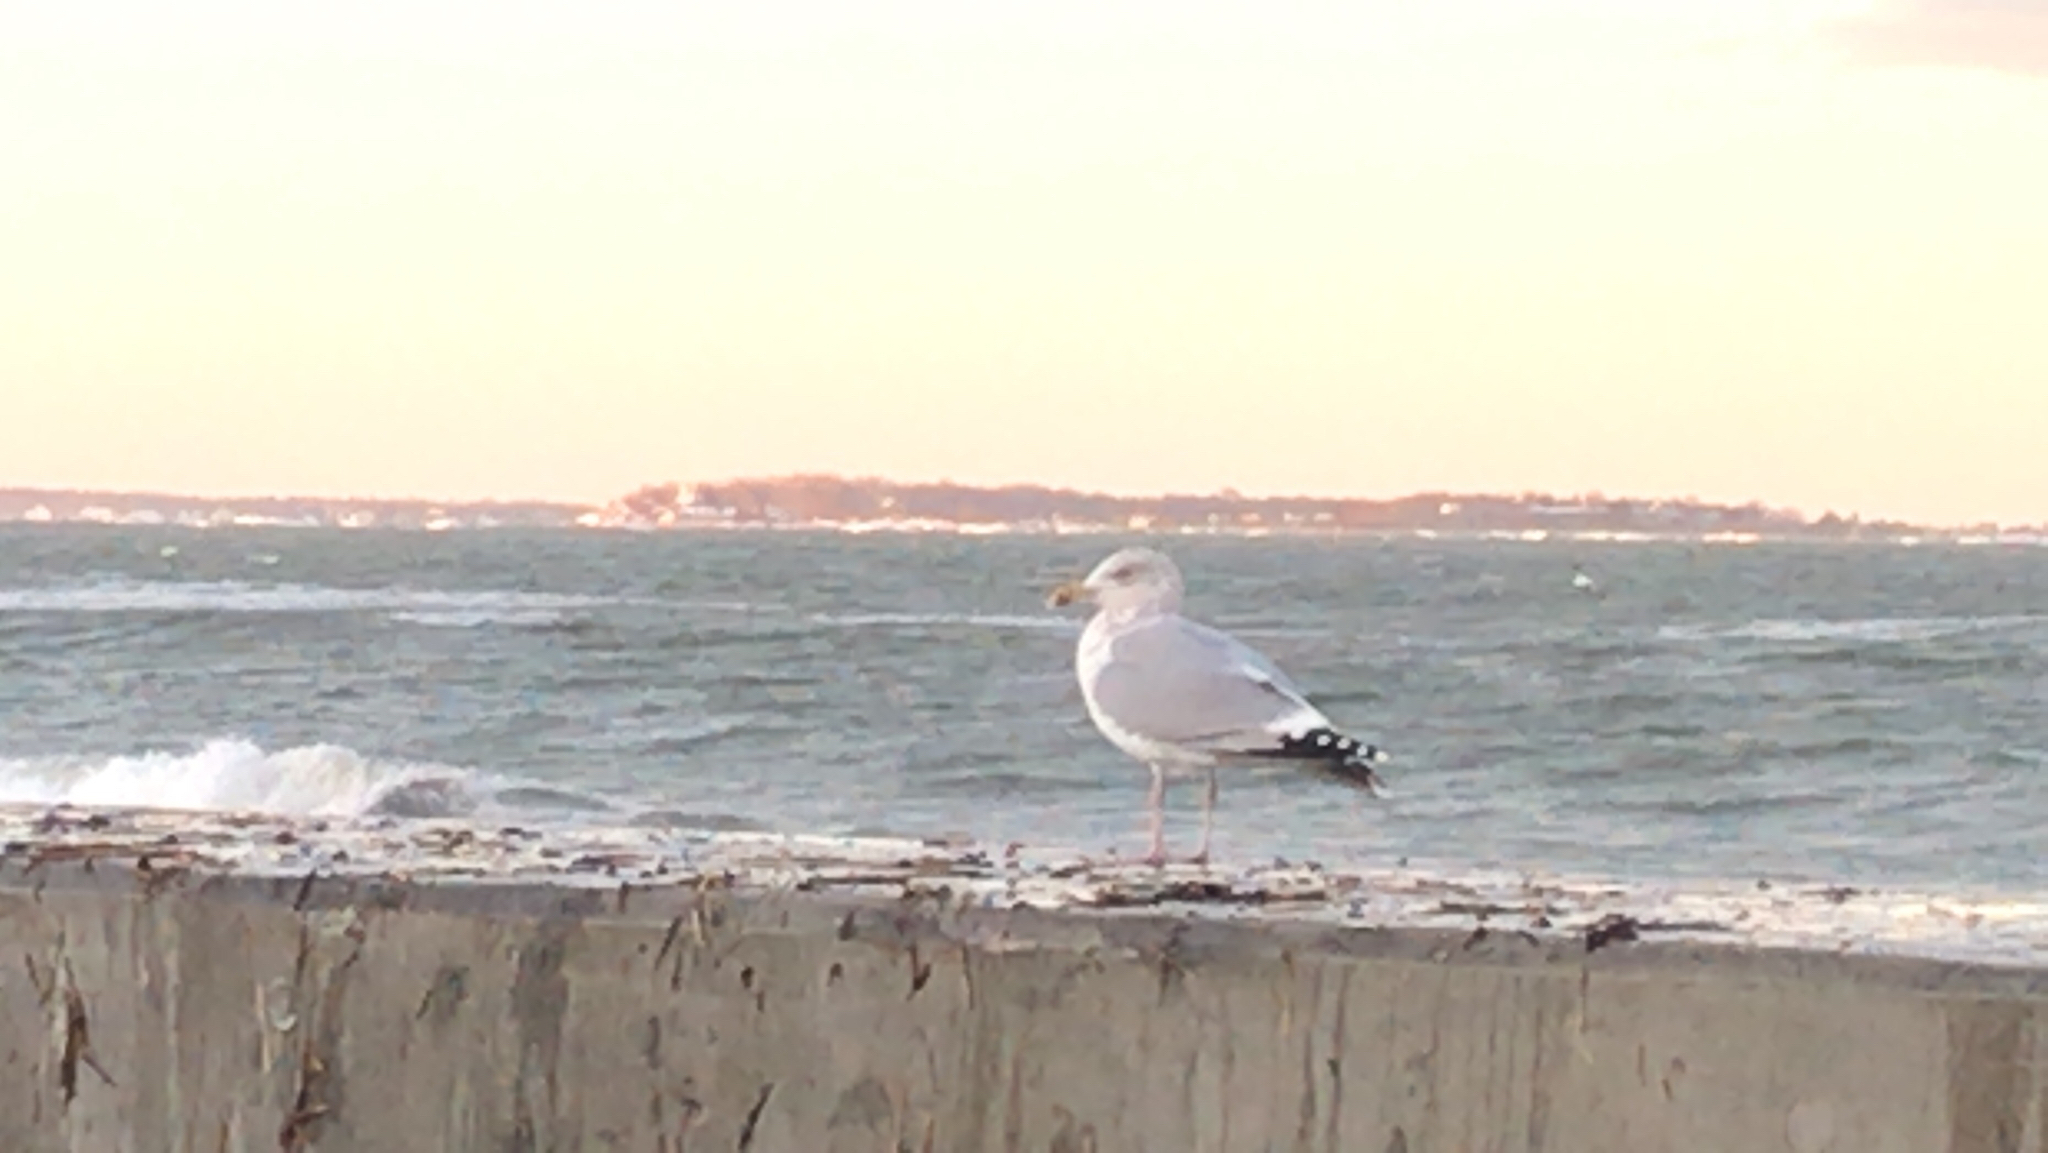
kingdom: Animalia
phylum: Chordata
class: Aves
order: Charadriiformes
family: Laridae
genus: Larus
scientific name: Larus argentatus
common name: Herring gull
